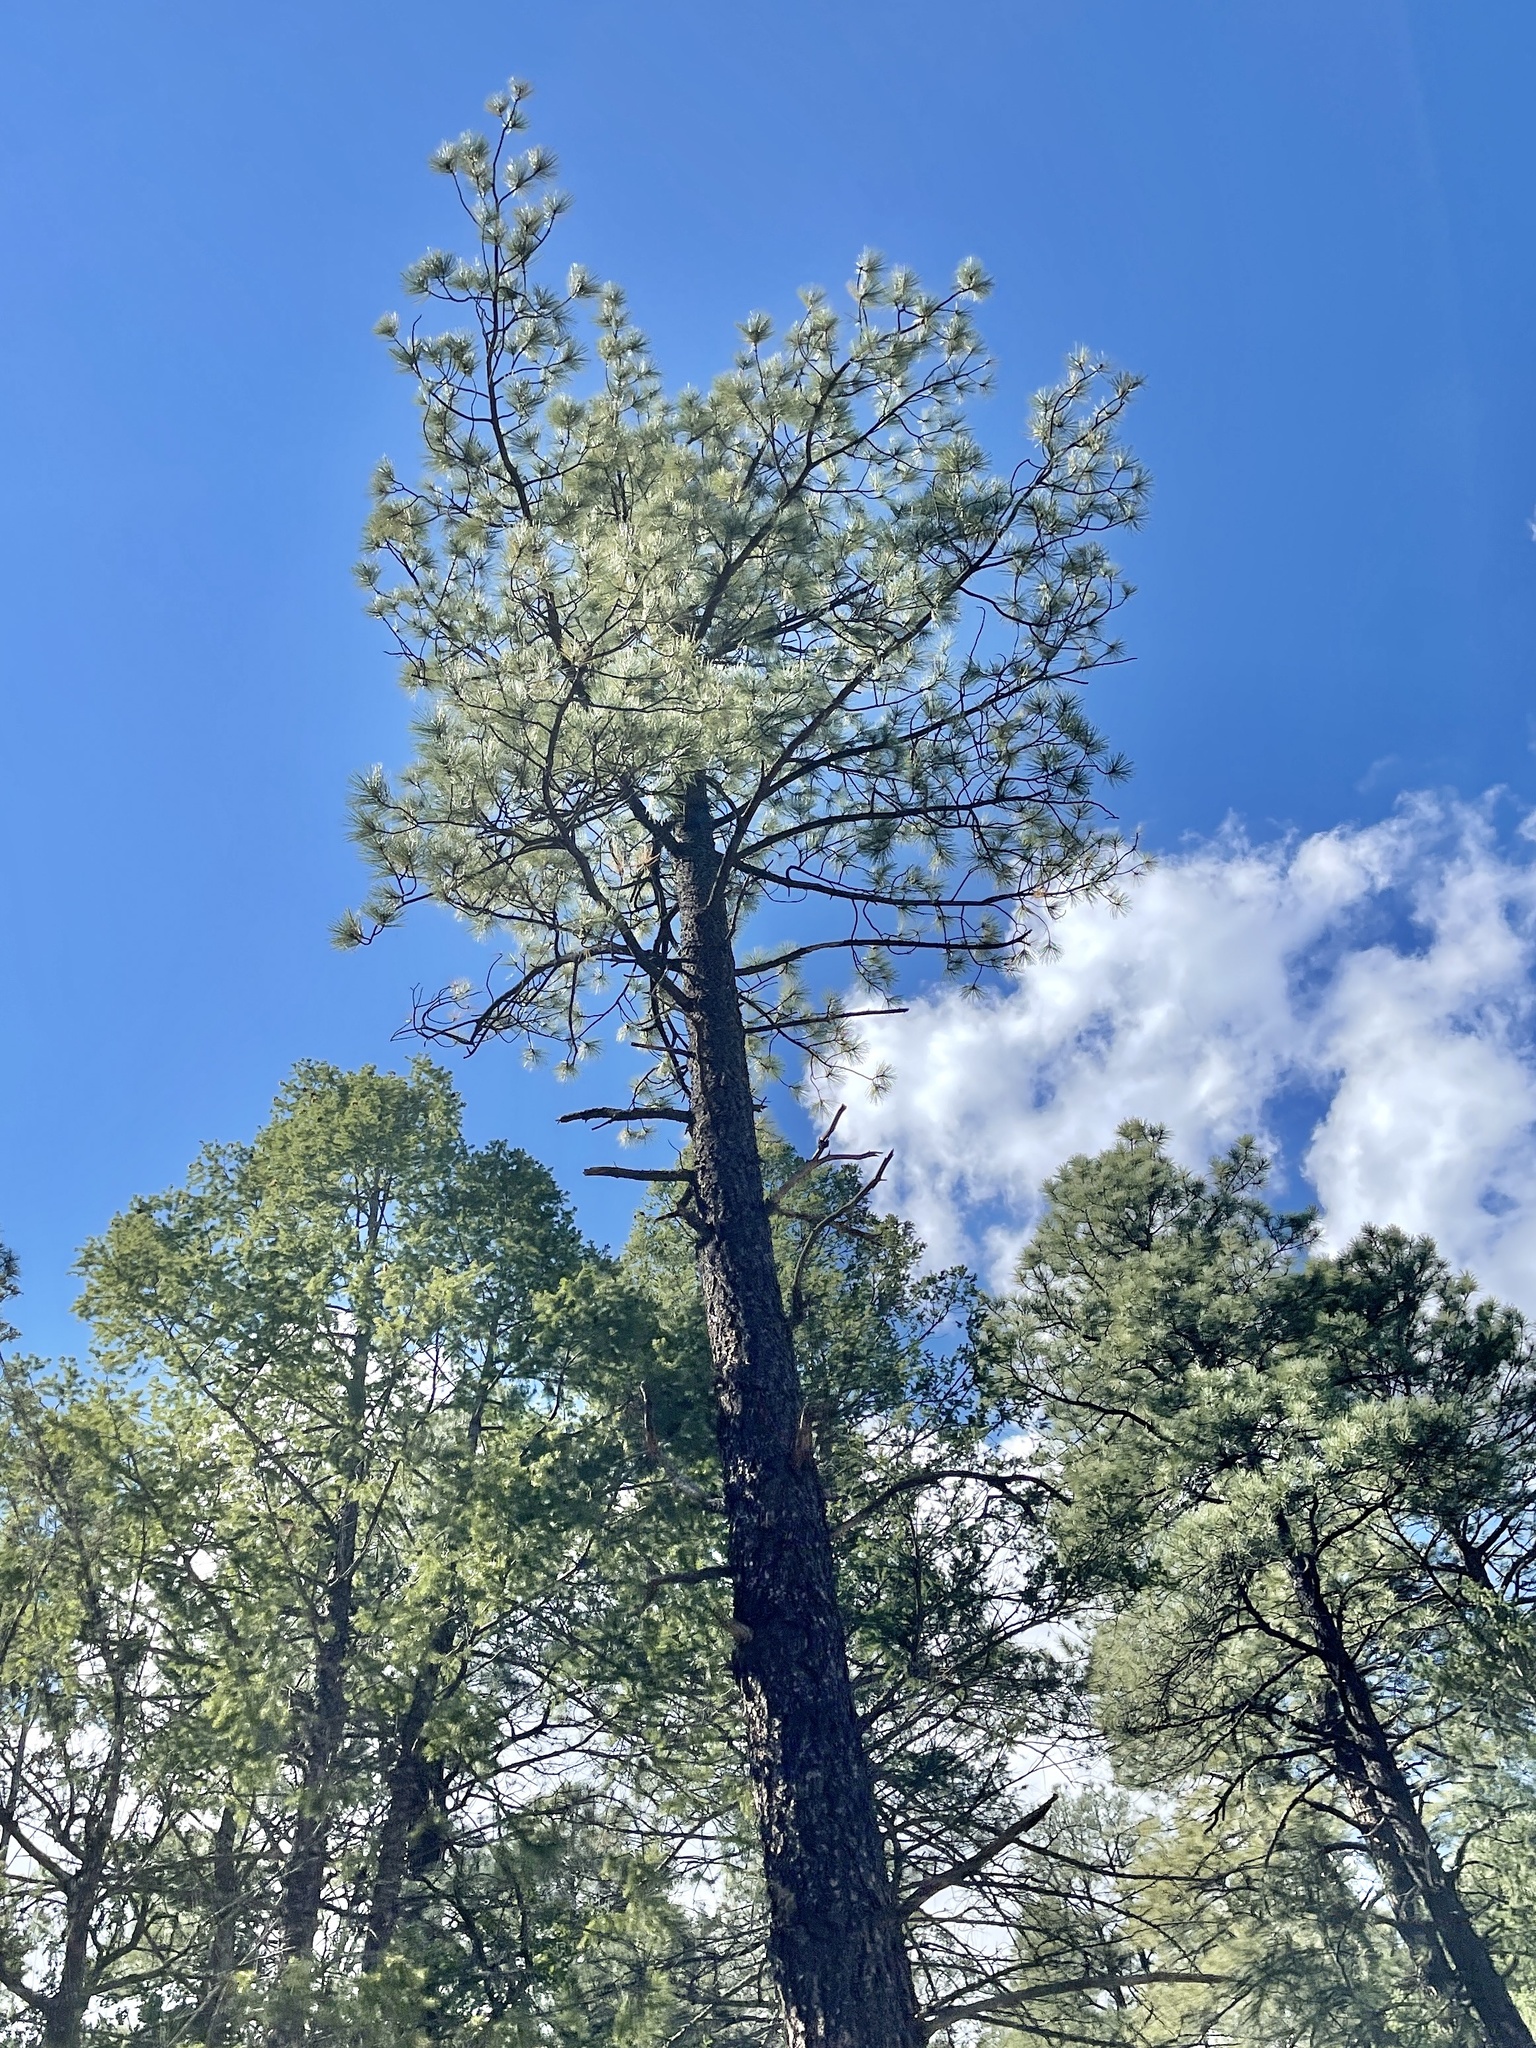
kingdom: Plantae
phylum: Tracheophyta
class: Pinopsida
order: Pinales
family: Pinaceae
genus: Pinus
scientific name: Pinus ponderosa
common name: Western yellow-pine
